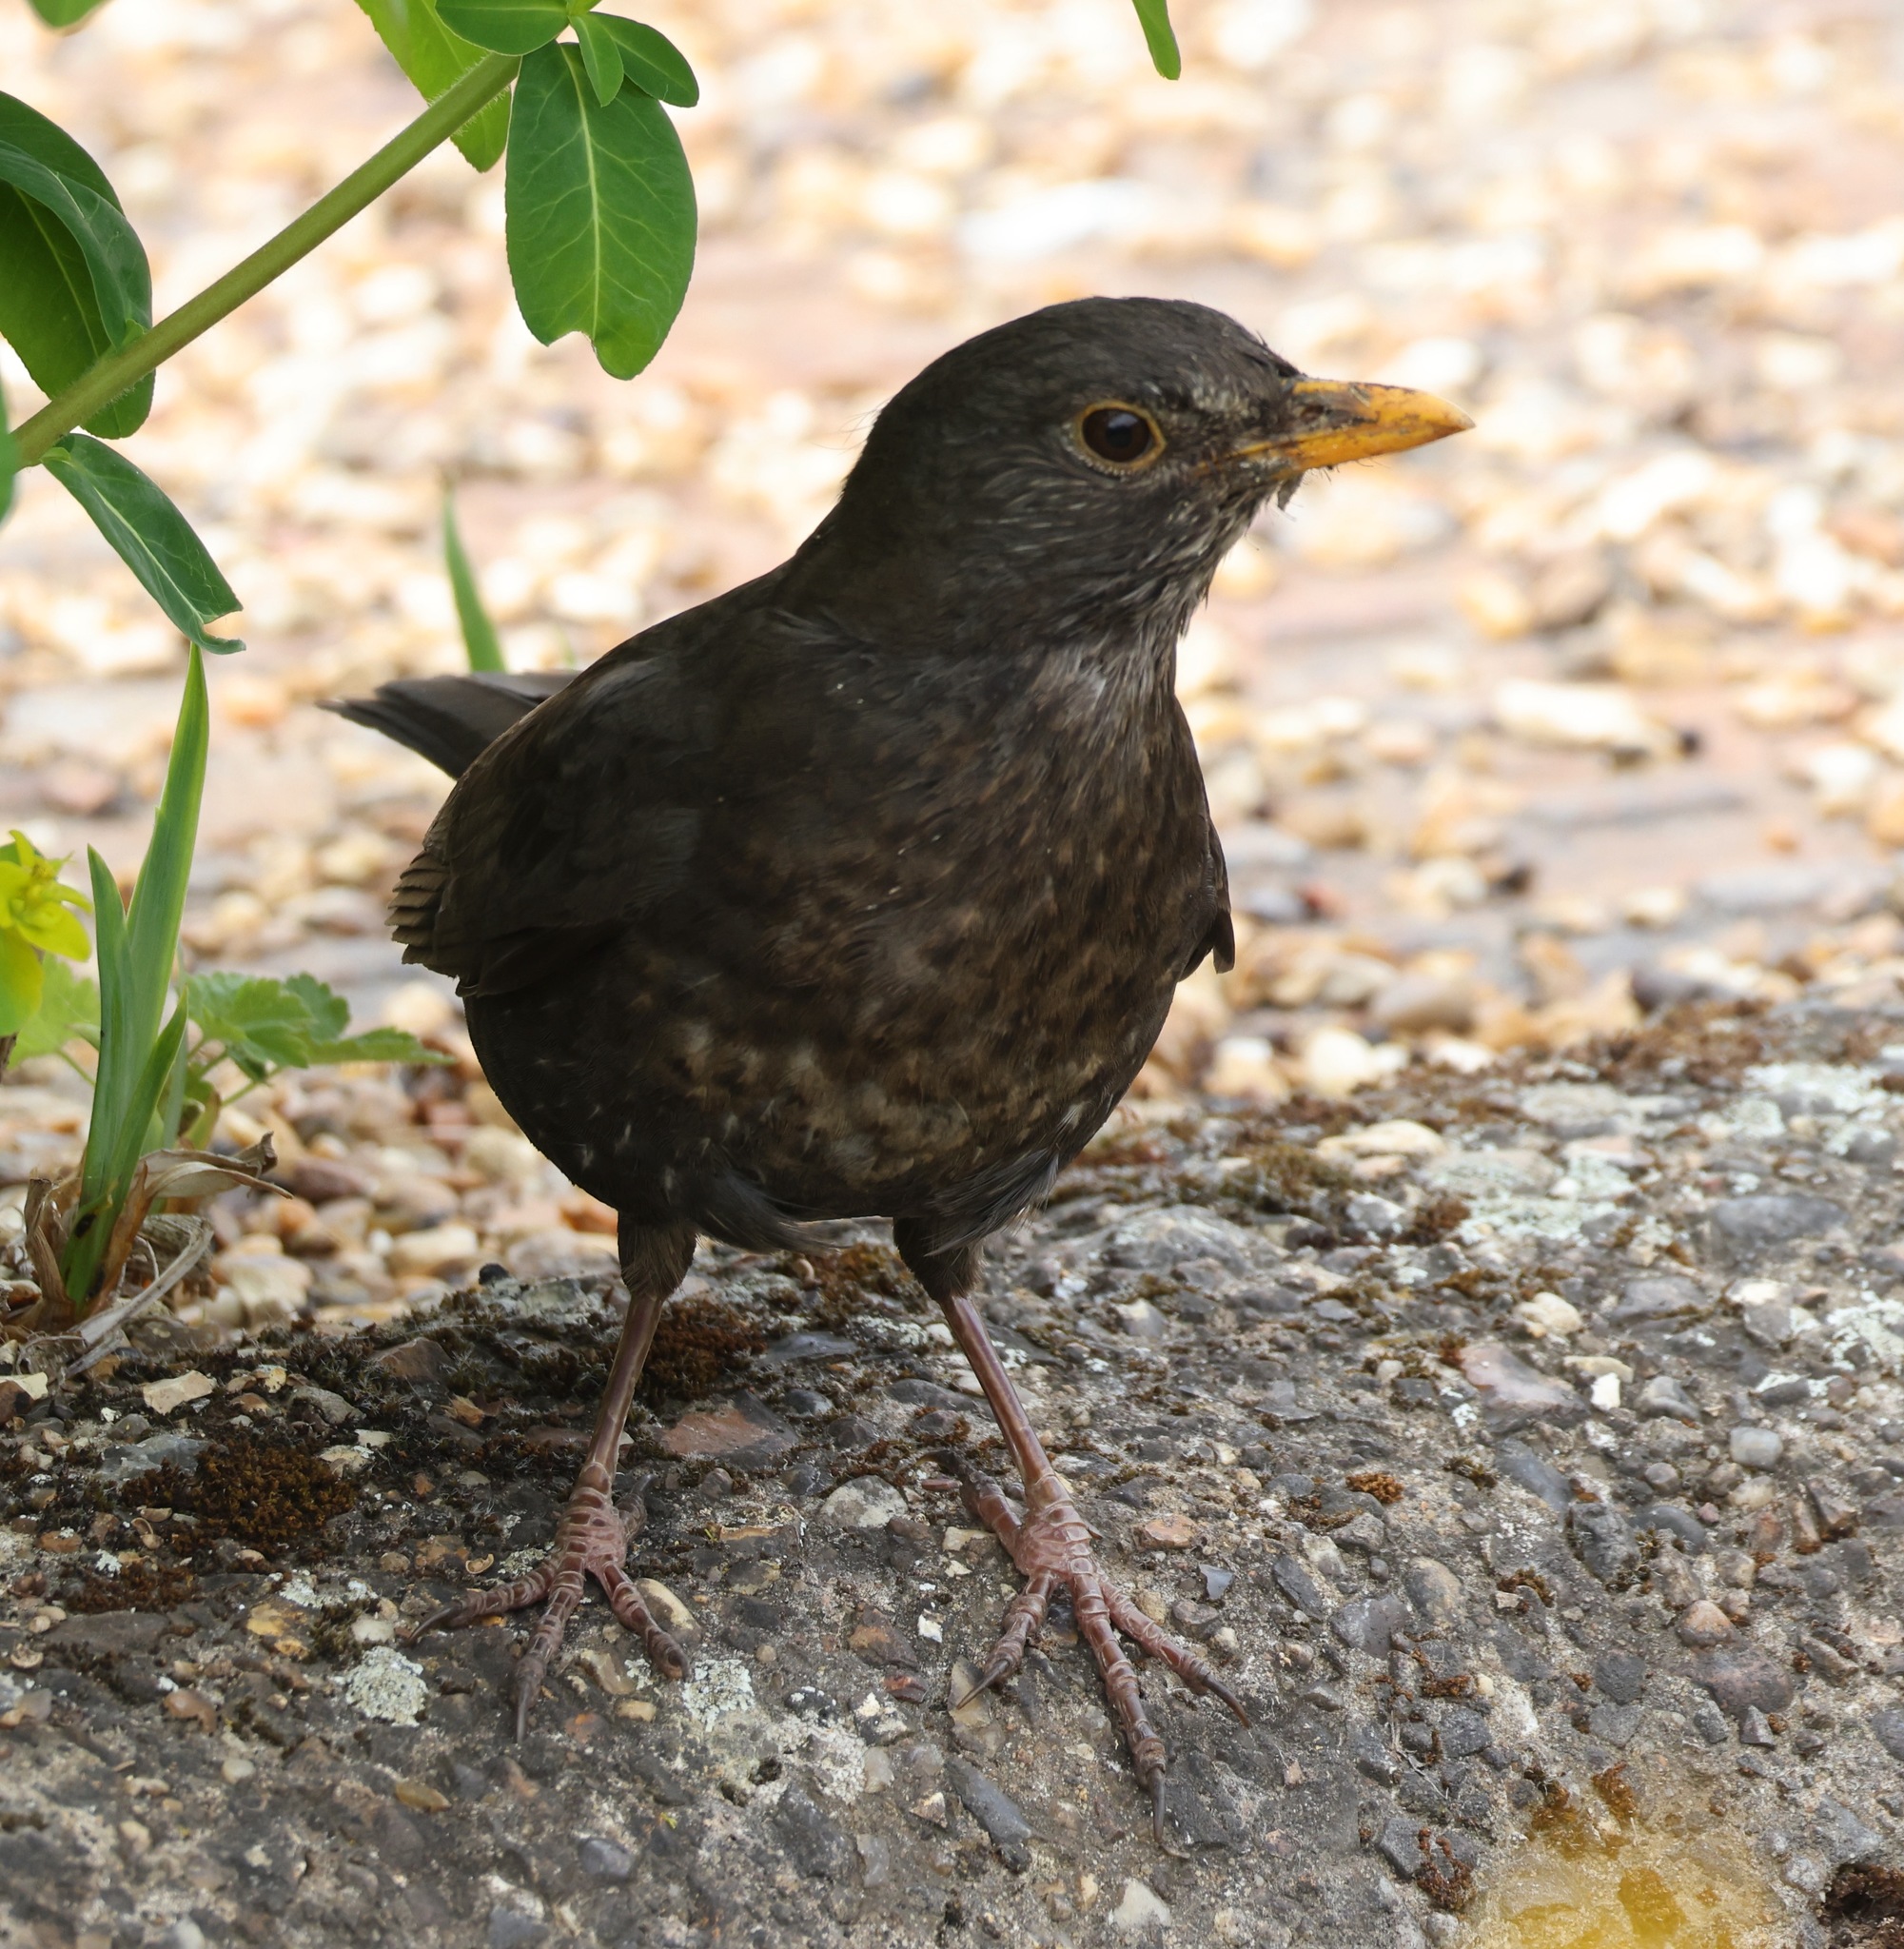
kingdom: Animalia
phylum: Chordata
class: Aves
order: Passeriformes
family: Turdidae
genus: Turdus
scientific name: Turdus merula
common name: Common blackbird
